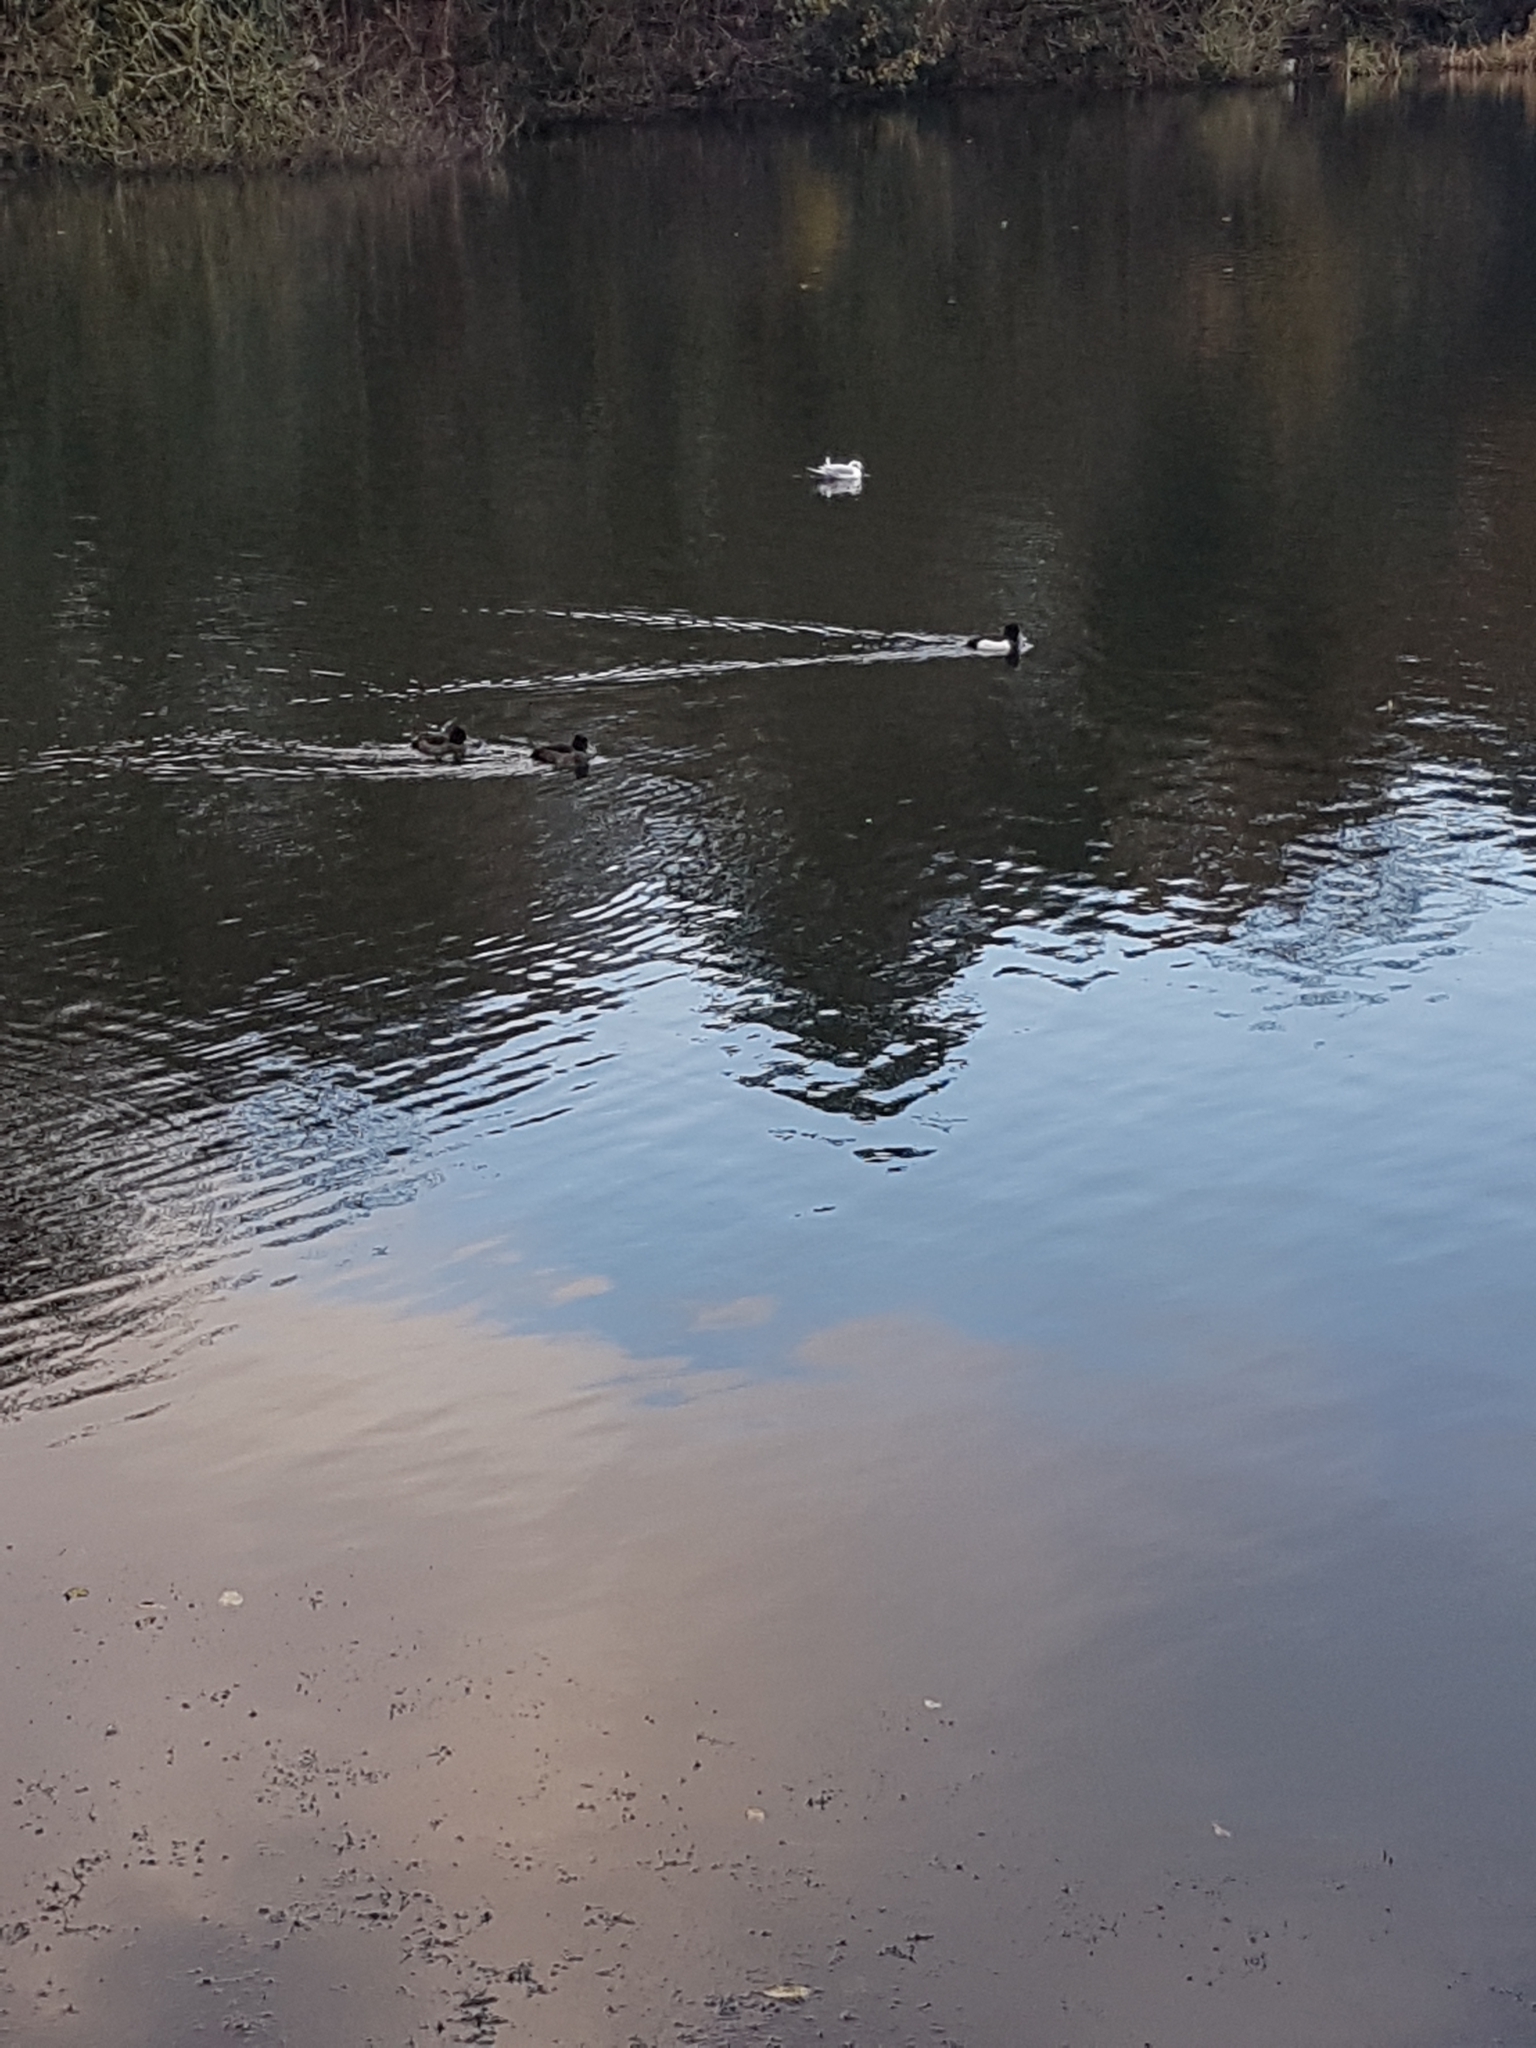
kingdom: Animalia
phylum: Chordata
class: Aves
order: Anseriformes
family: Anatidae
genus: Aythya
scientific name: Aythya fuligula
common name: Tufted duck
